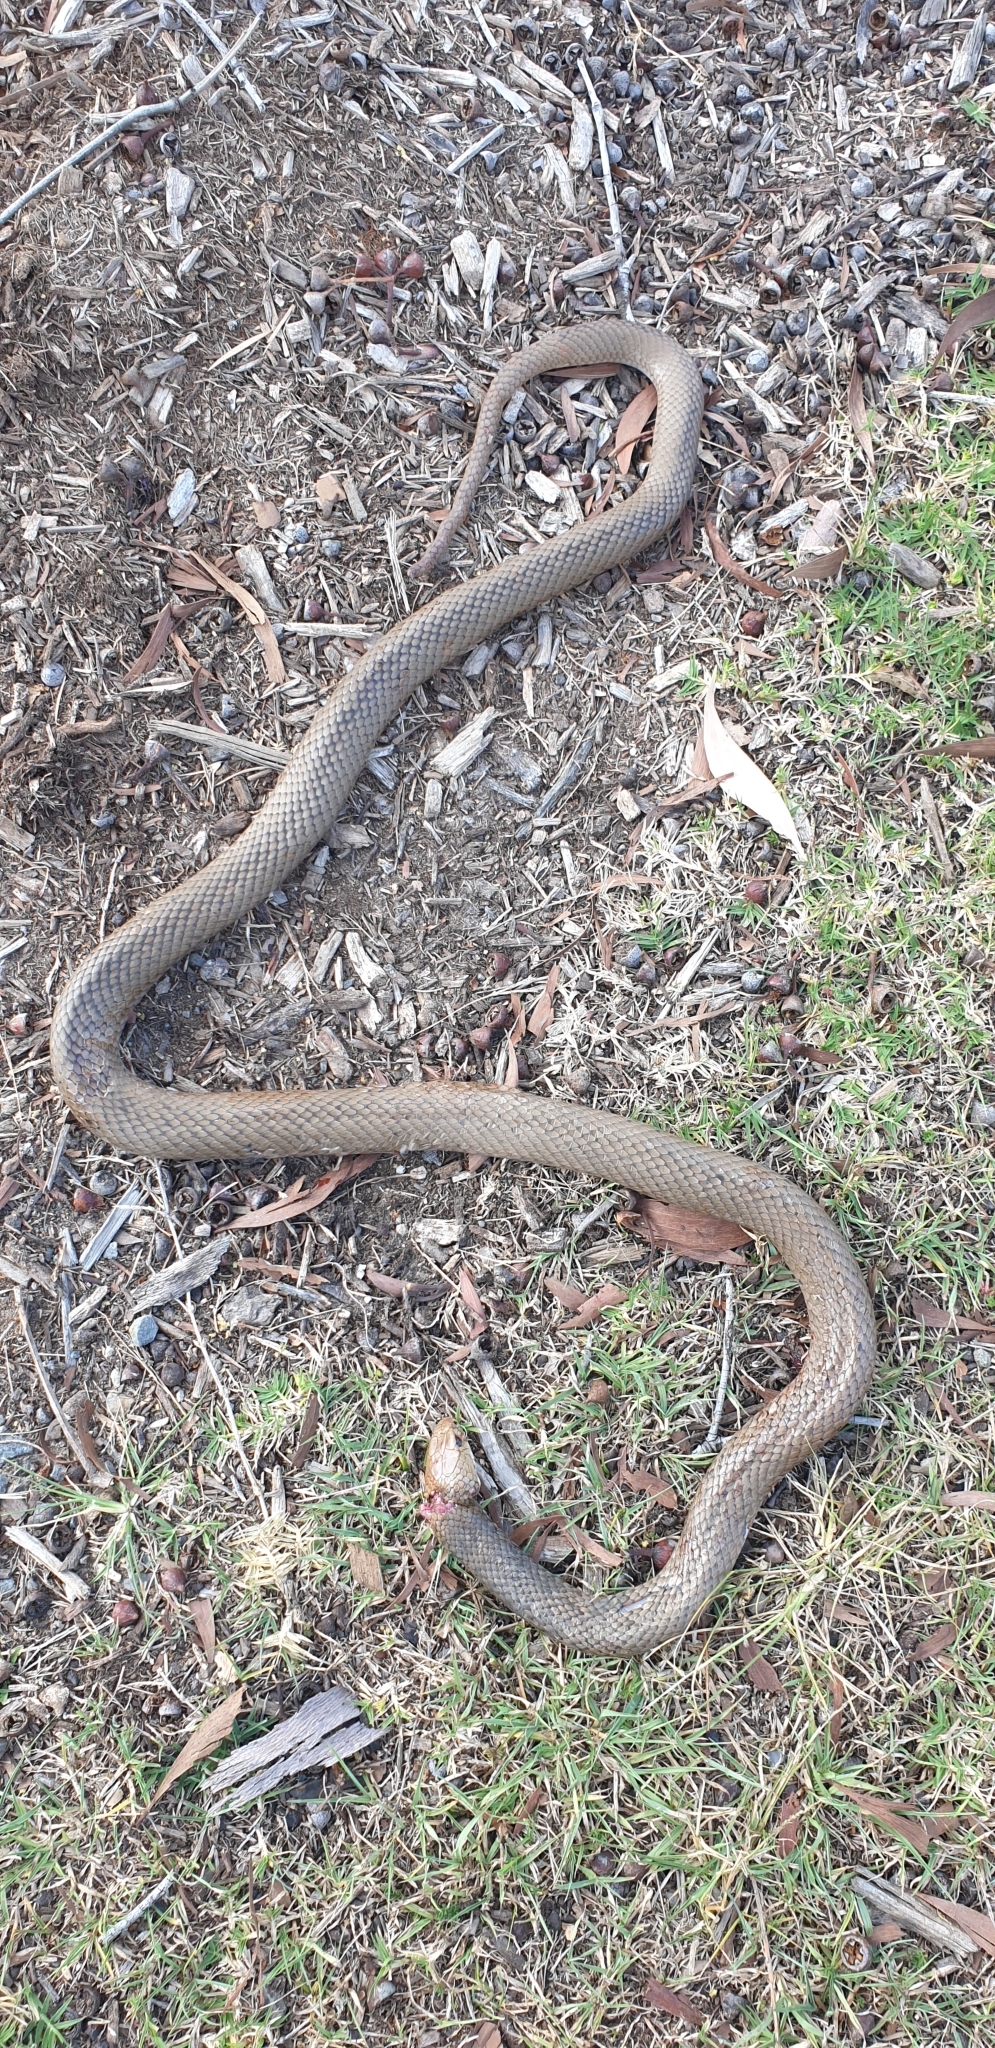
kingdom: Animalia
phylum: Chordata
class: Squamata
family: Elapidae
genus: Pseudonaja
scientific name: Pseudonaja textilis
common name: Eastern brown snake
